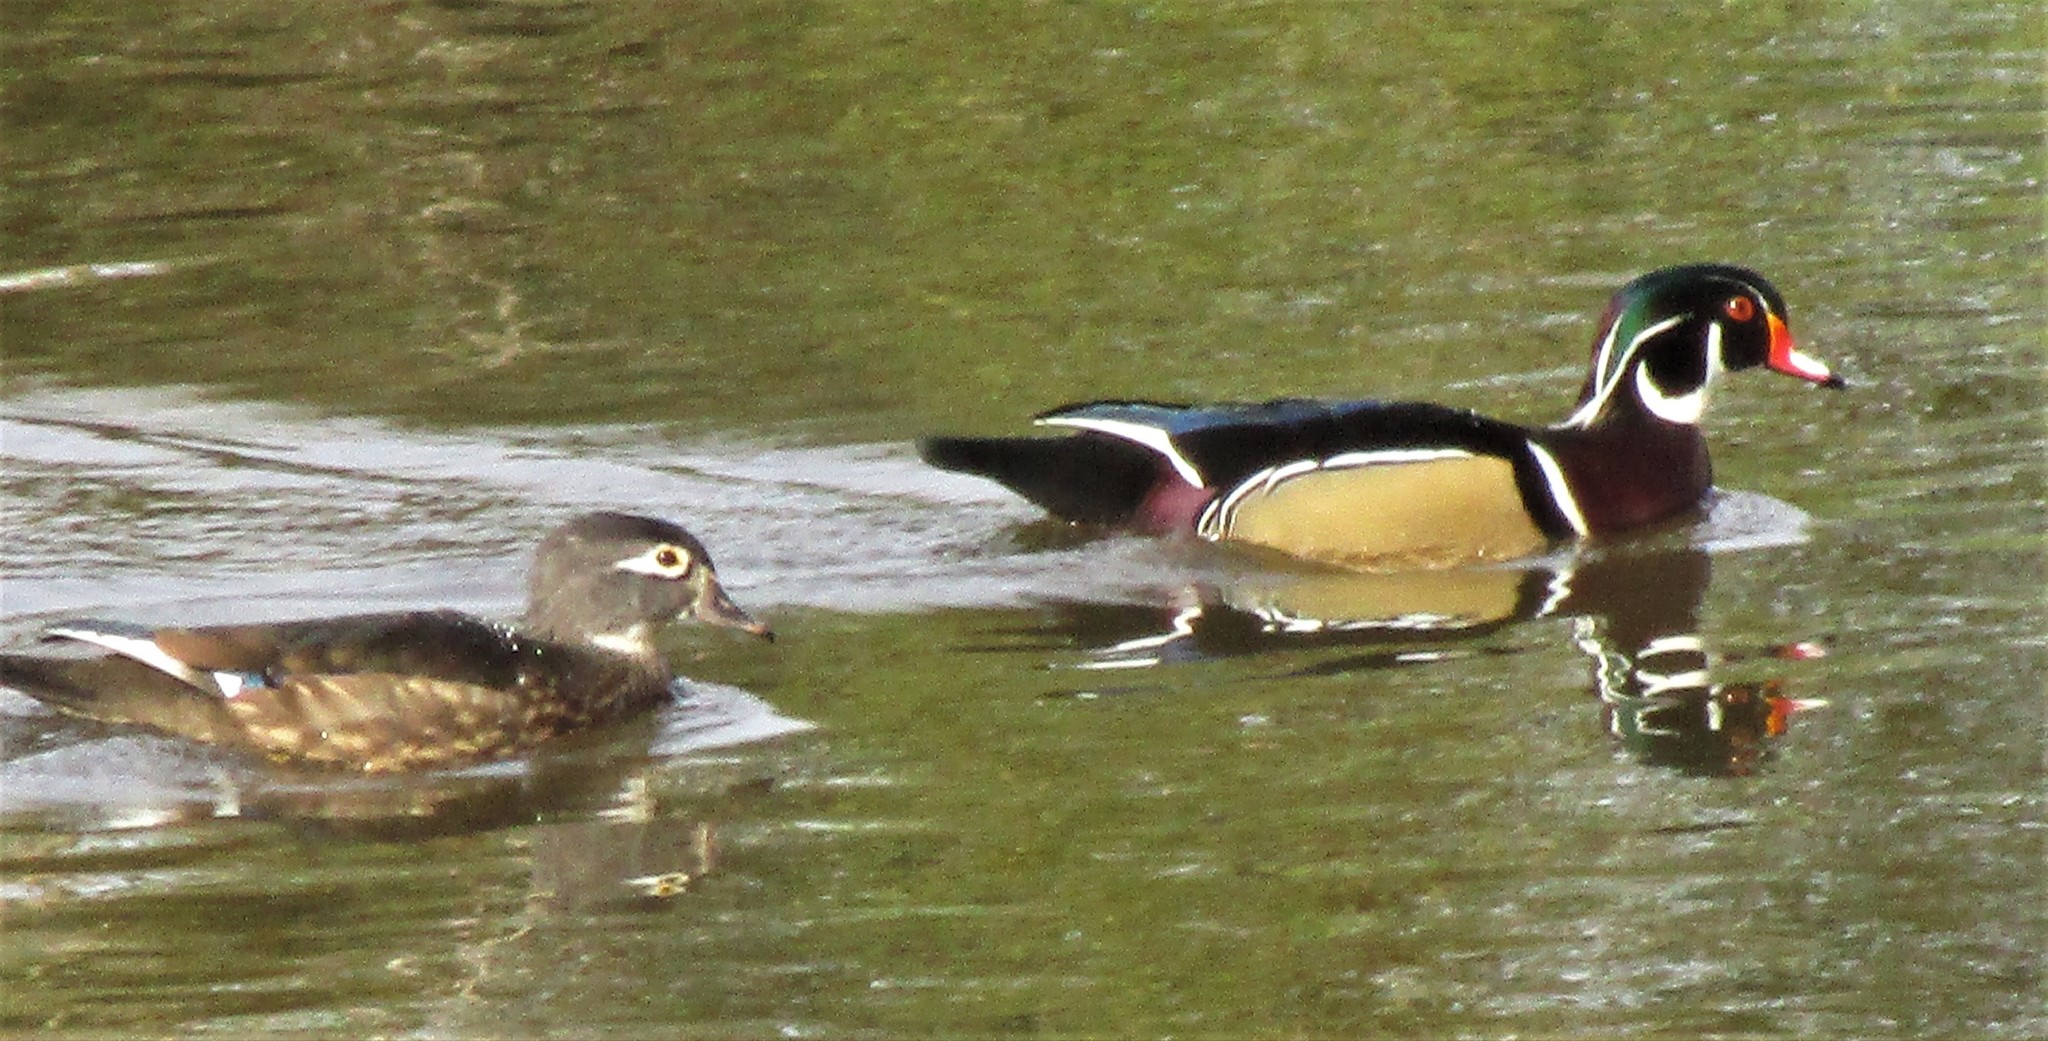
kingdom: Animalia
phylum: Chordata
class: Aves
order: Anseriformes
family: Anatidae
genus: Aix
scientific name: Aix sponsa
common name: Wood duck
